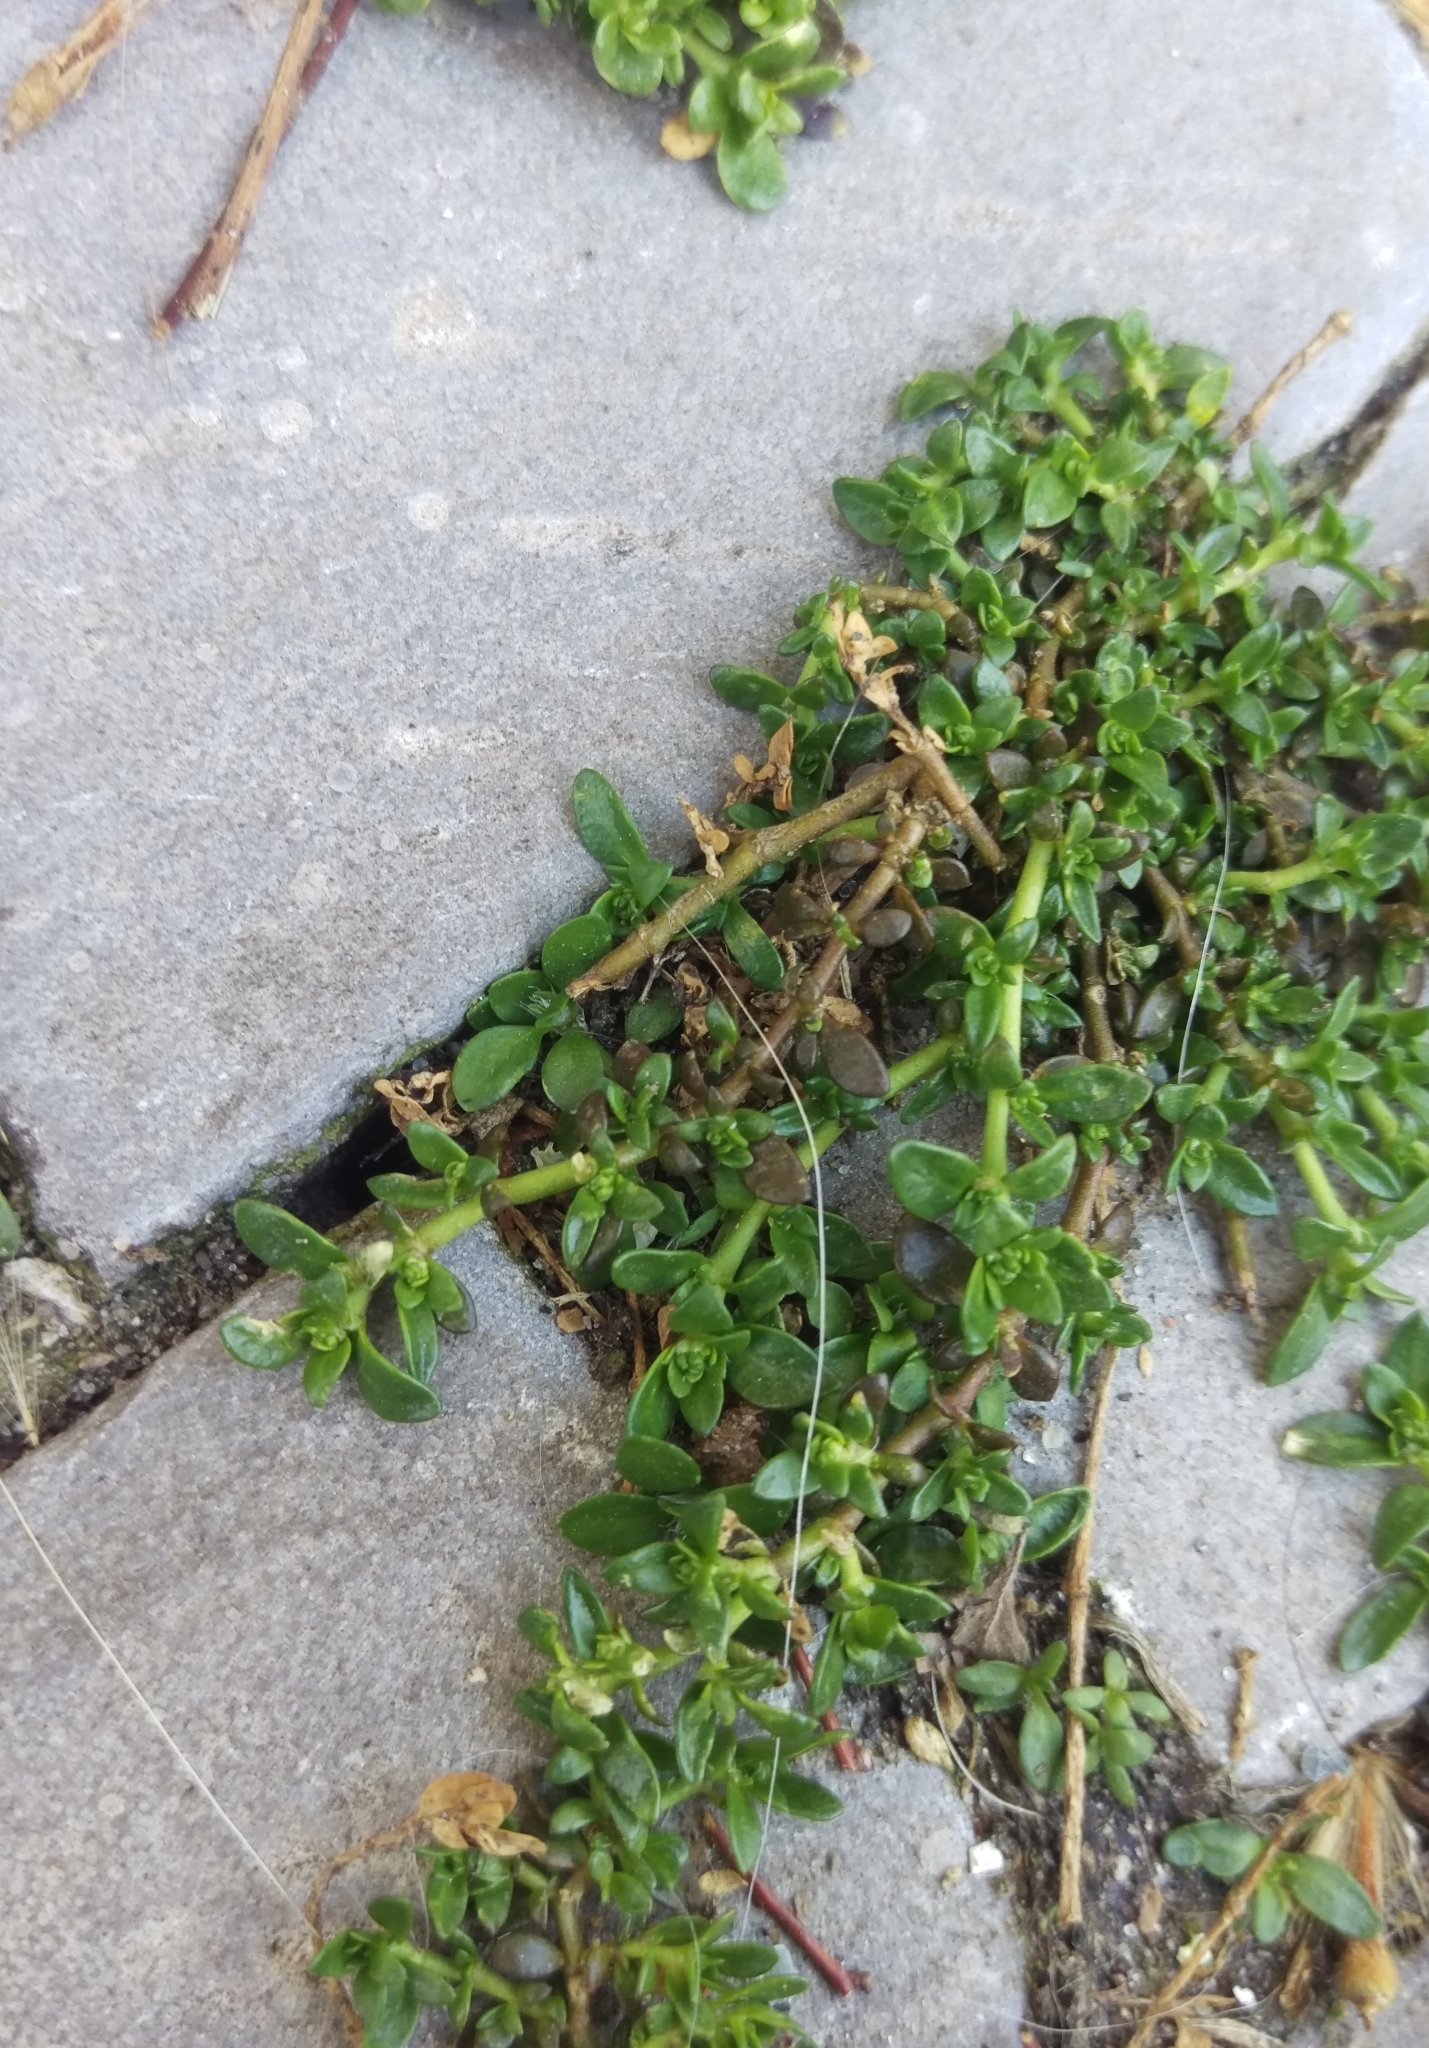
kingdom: Plantae
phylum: Tracheophyta
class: Magnoliopsida
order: Caryophyllales
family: Caryophyllaceae
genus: Herniaria
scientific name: Herniaria glabra
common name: Smooth rupturewort
